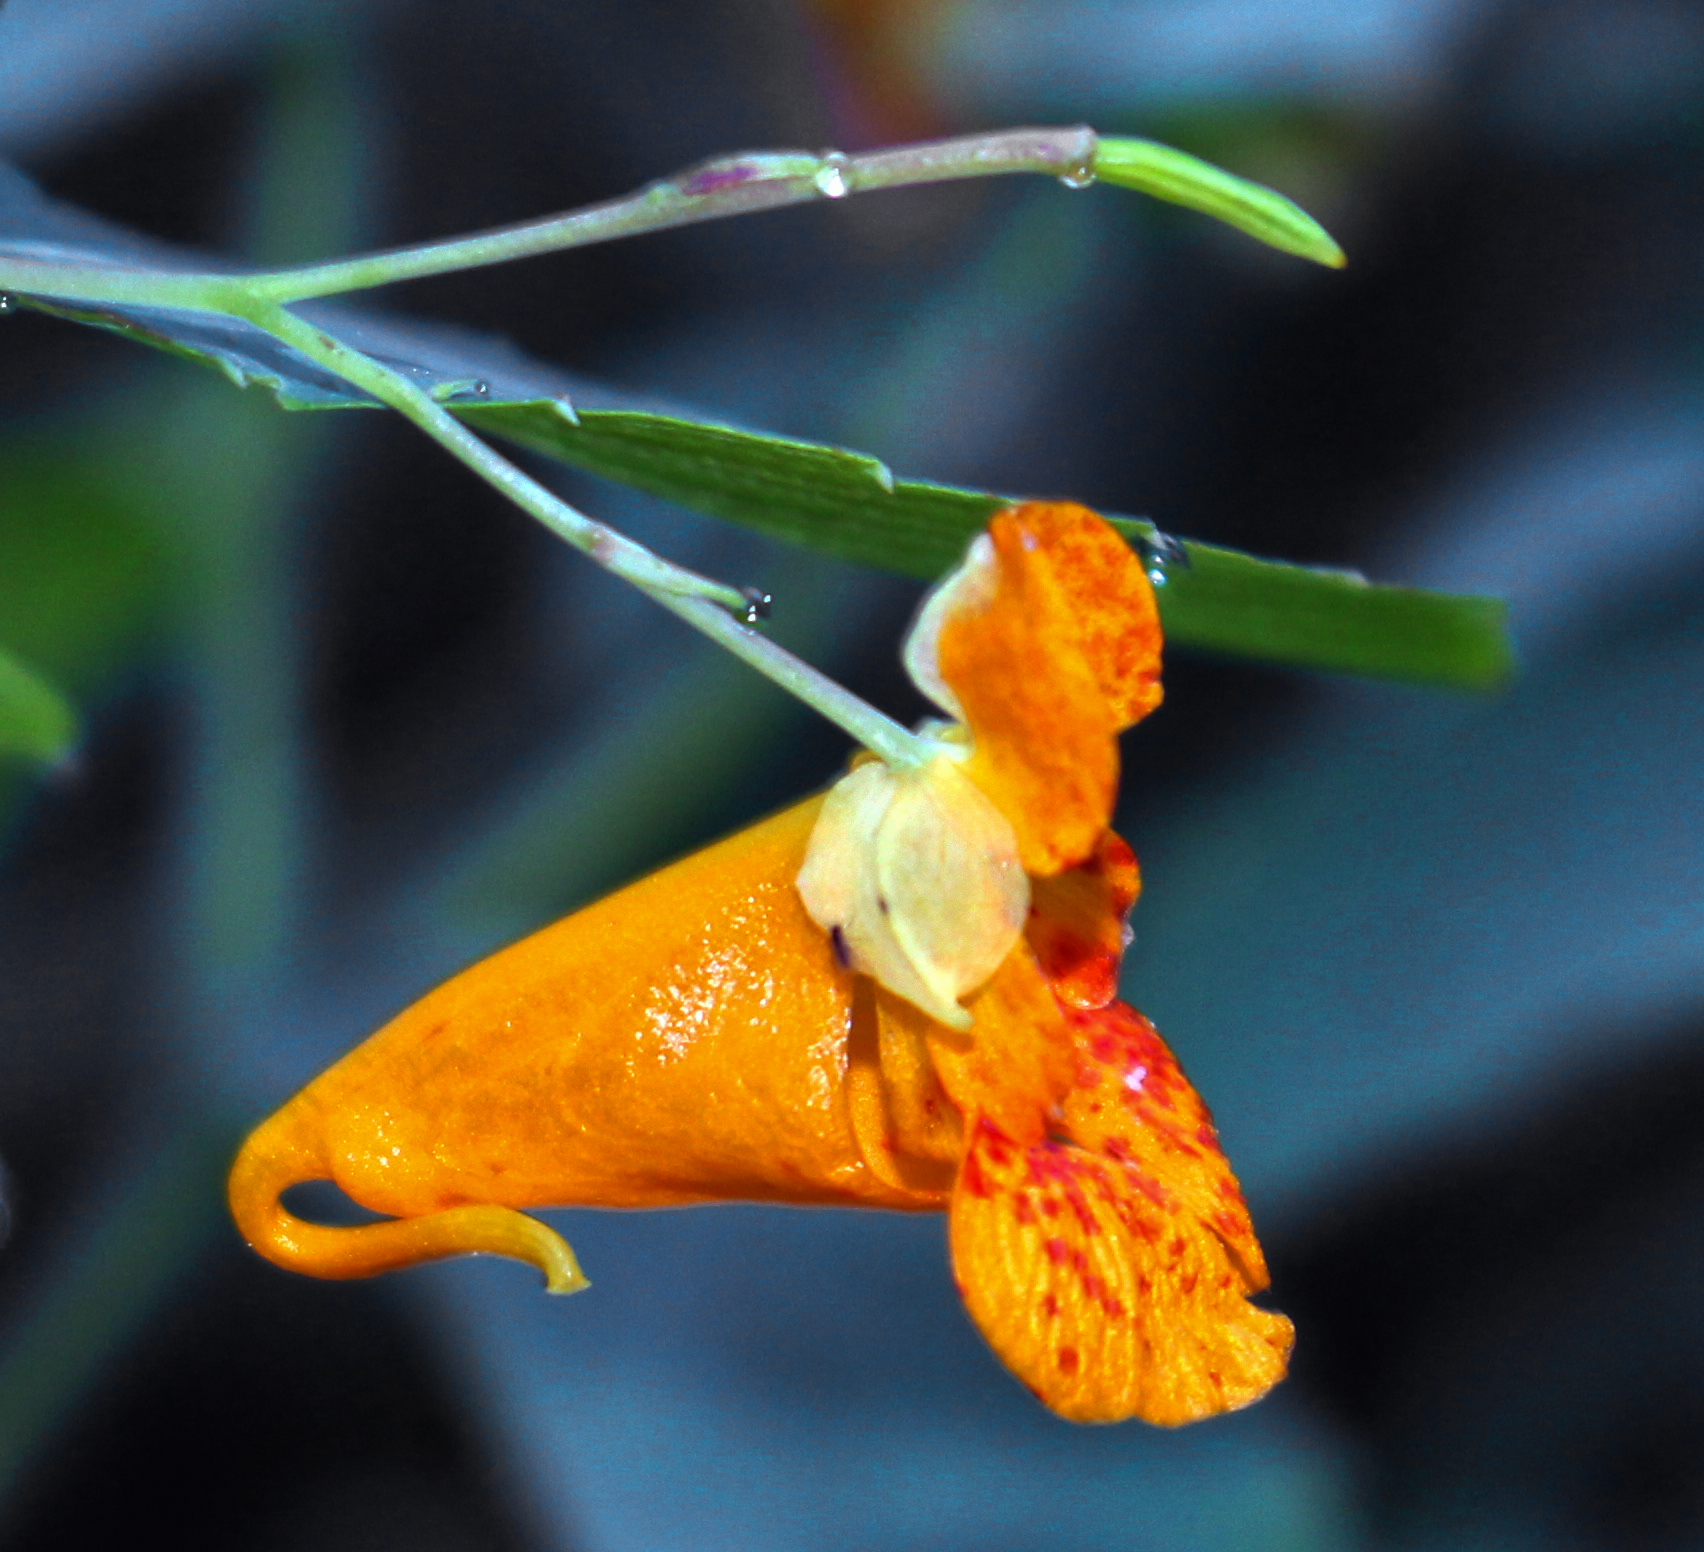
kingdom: Plantae
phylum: Tracheophyta
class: Magnoliopsida
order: Ericales
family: Balsaminaceae
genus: Impatiens
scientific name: Impatiens capensis
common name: Orange balsam
